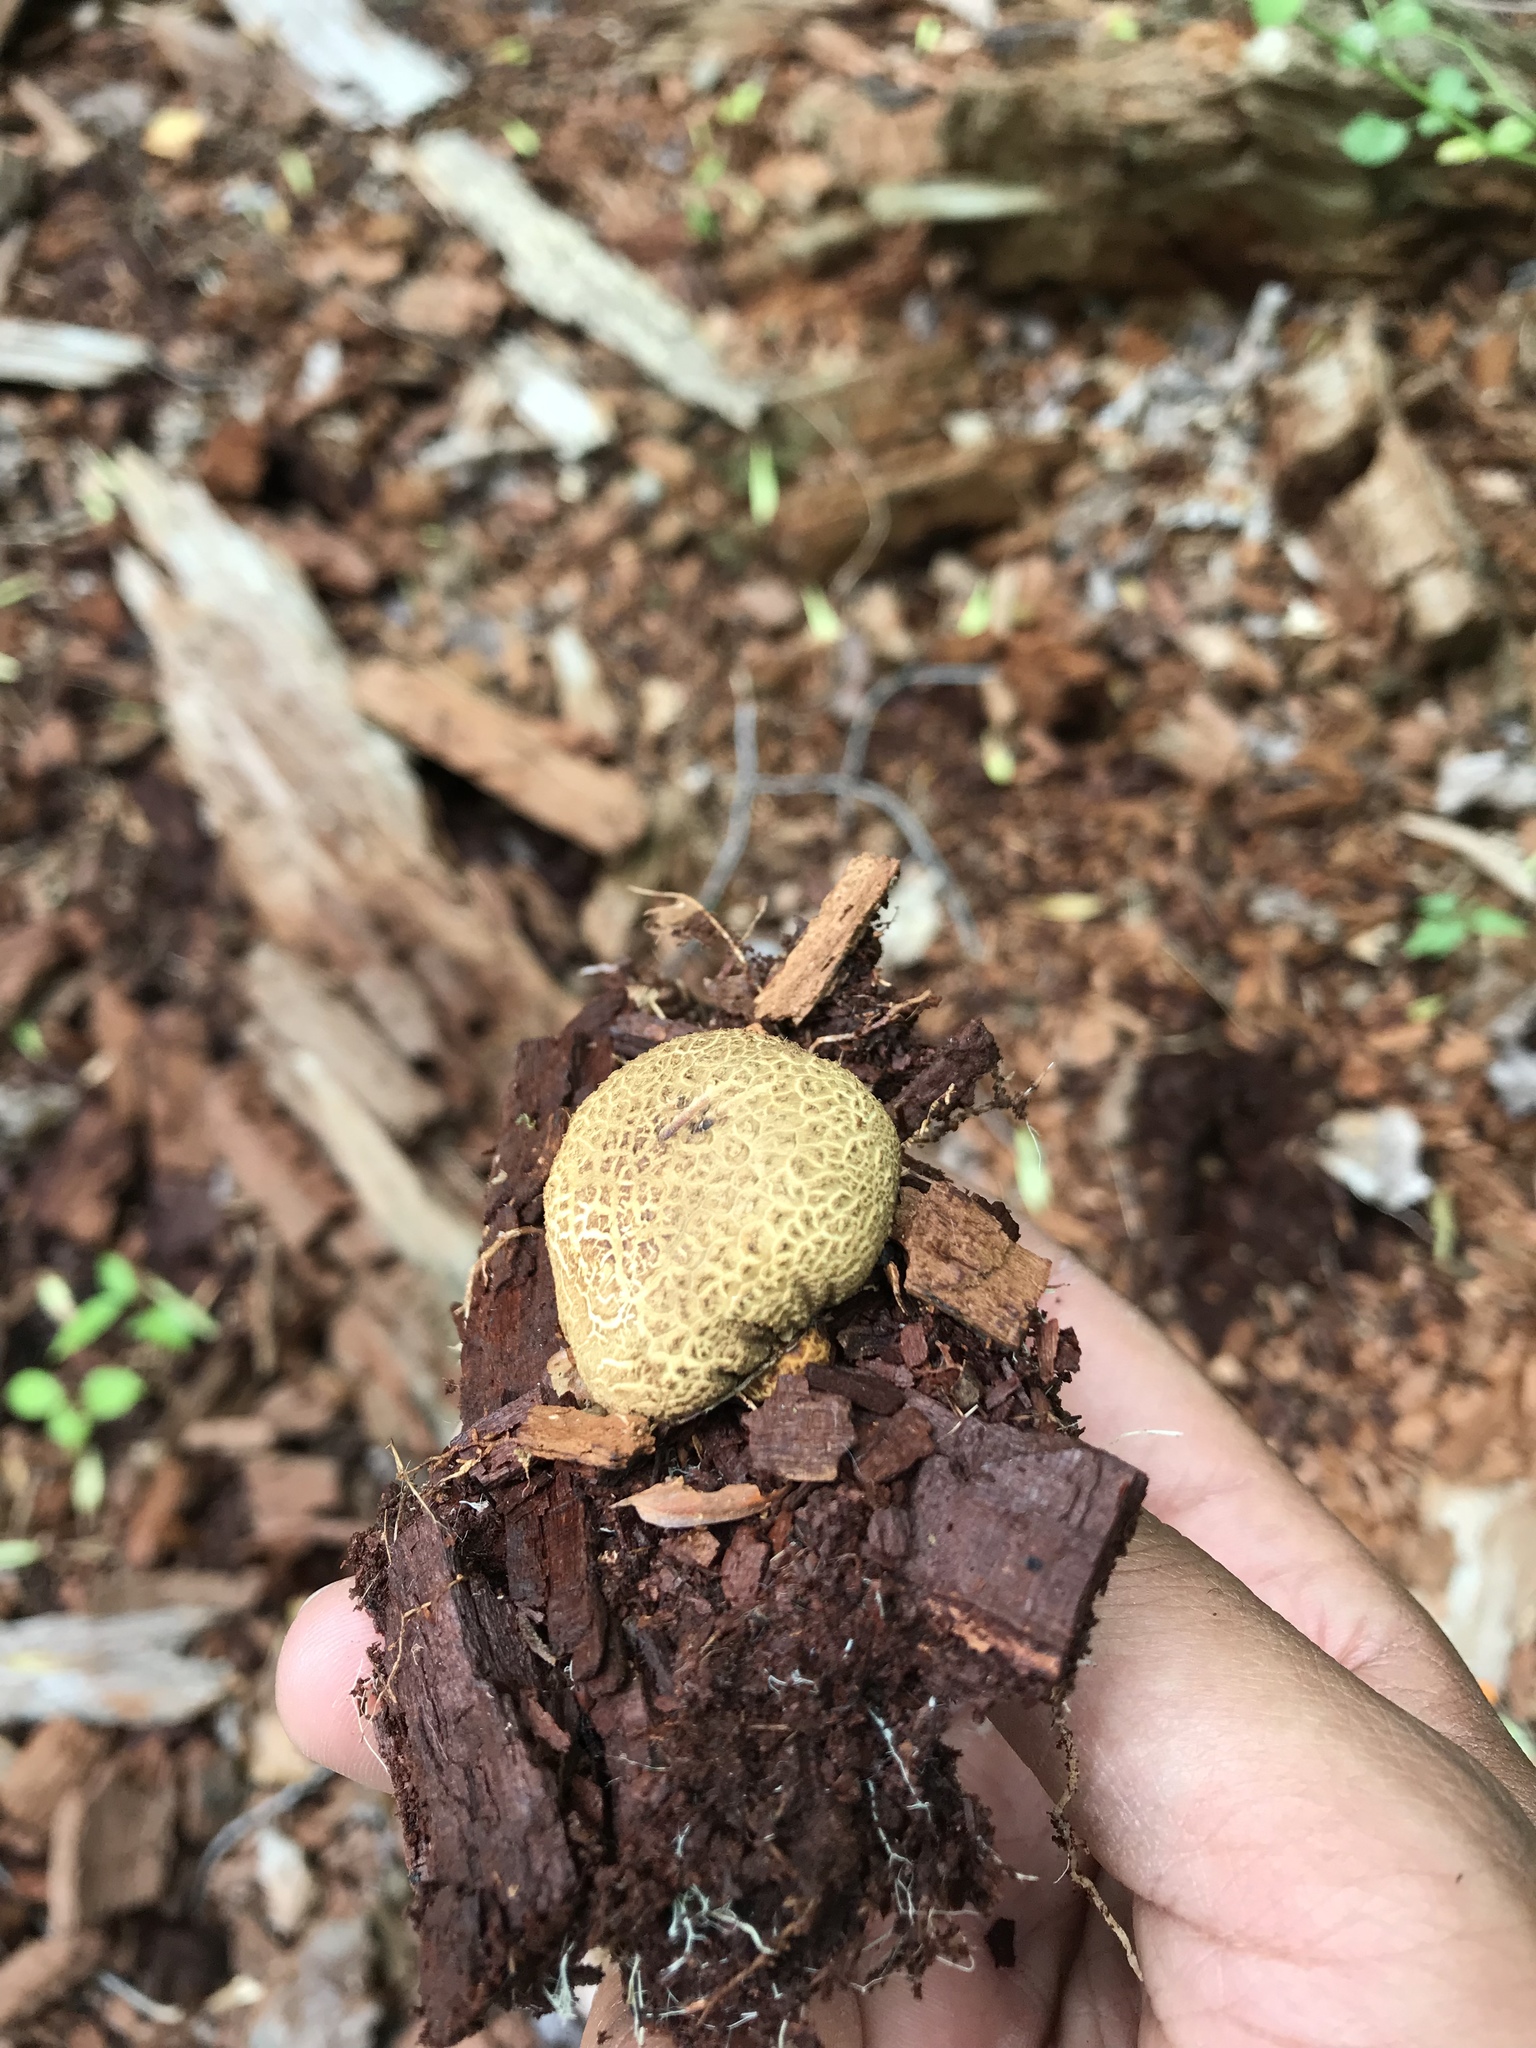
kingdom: Fungi
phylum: Basidiomycota
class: Agaricomycetes
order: Boletales
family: Sclerodermataceae
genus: Scleroderma
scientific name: Scleroderma citrinum
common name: Common earthball
